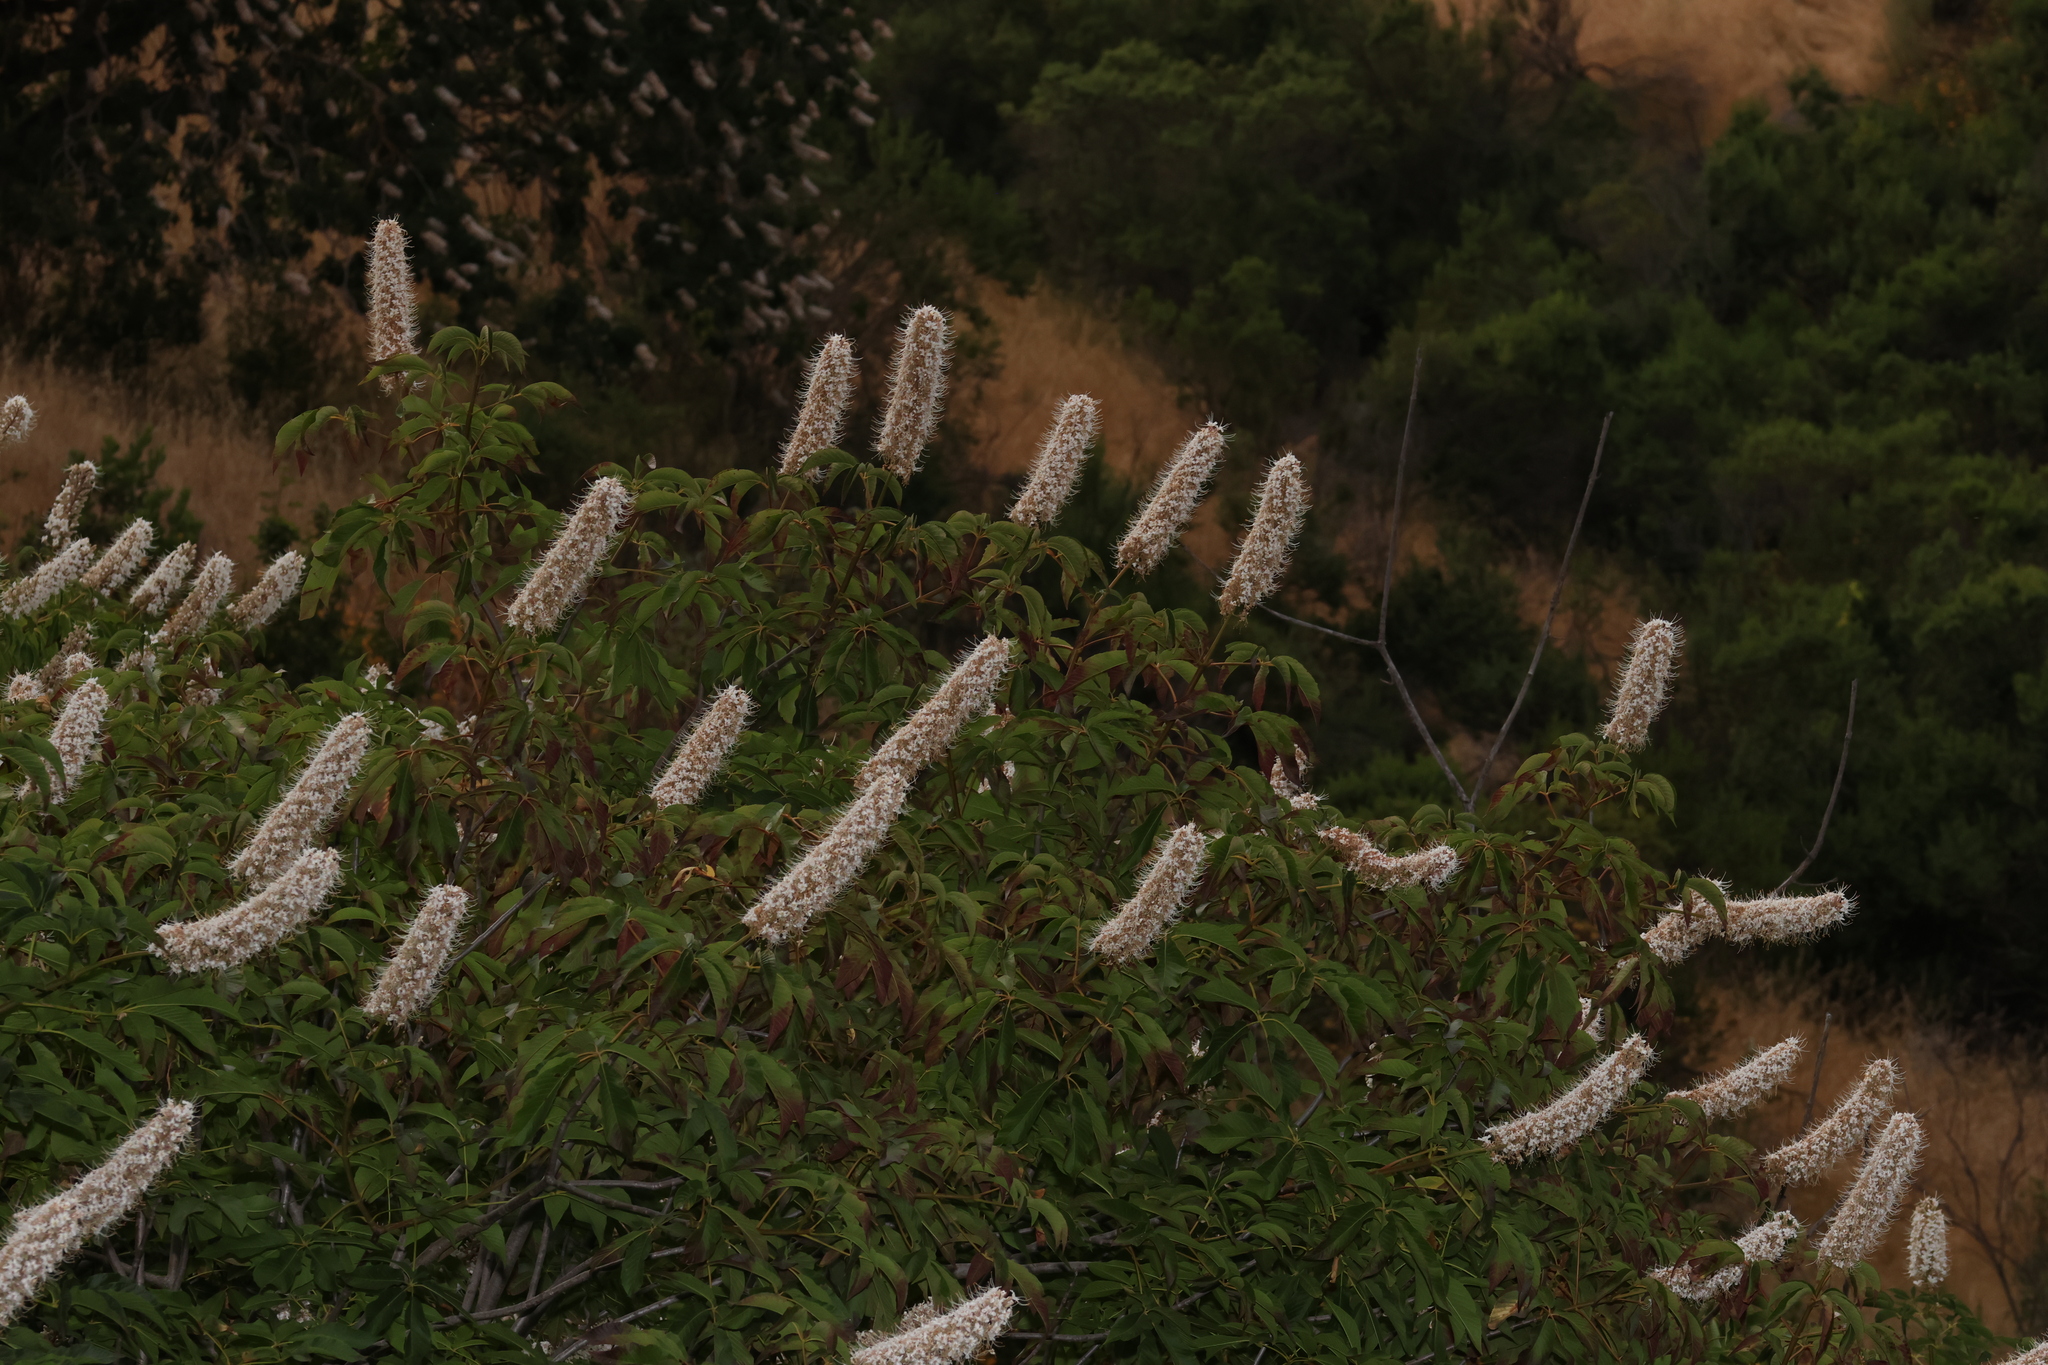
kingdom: Plantae
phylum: Tracheophyta
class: Magnoliopsida
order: Sapindales
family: Sapindaceae
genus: Aesculus
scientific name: Aesculus californica
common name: California buckeye
